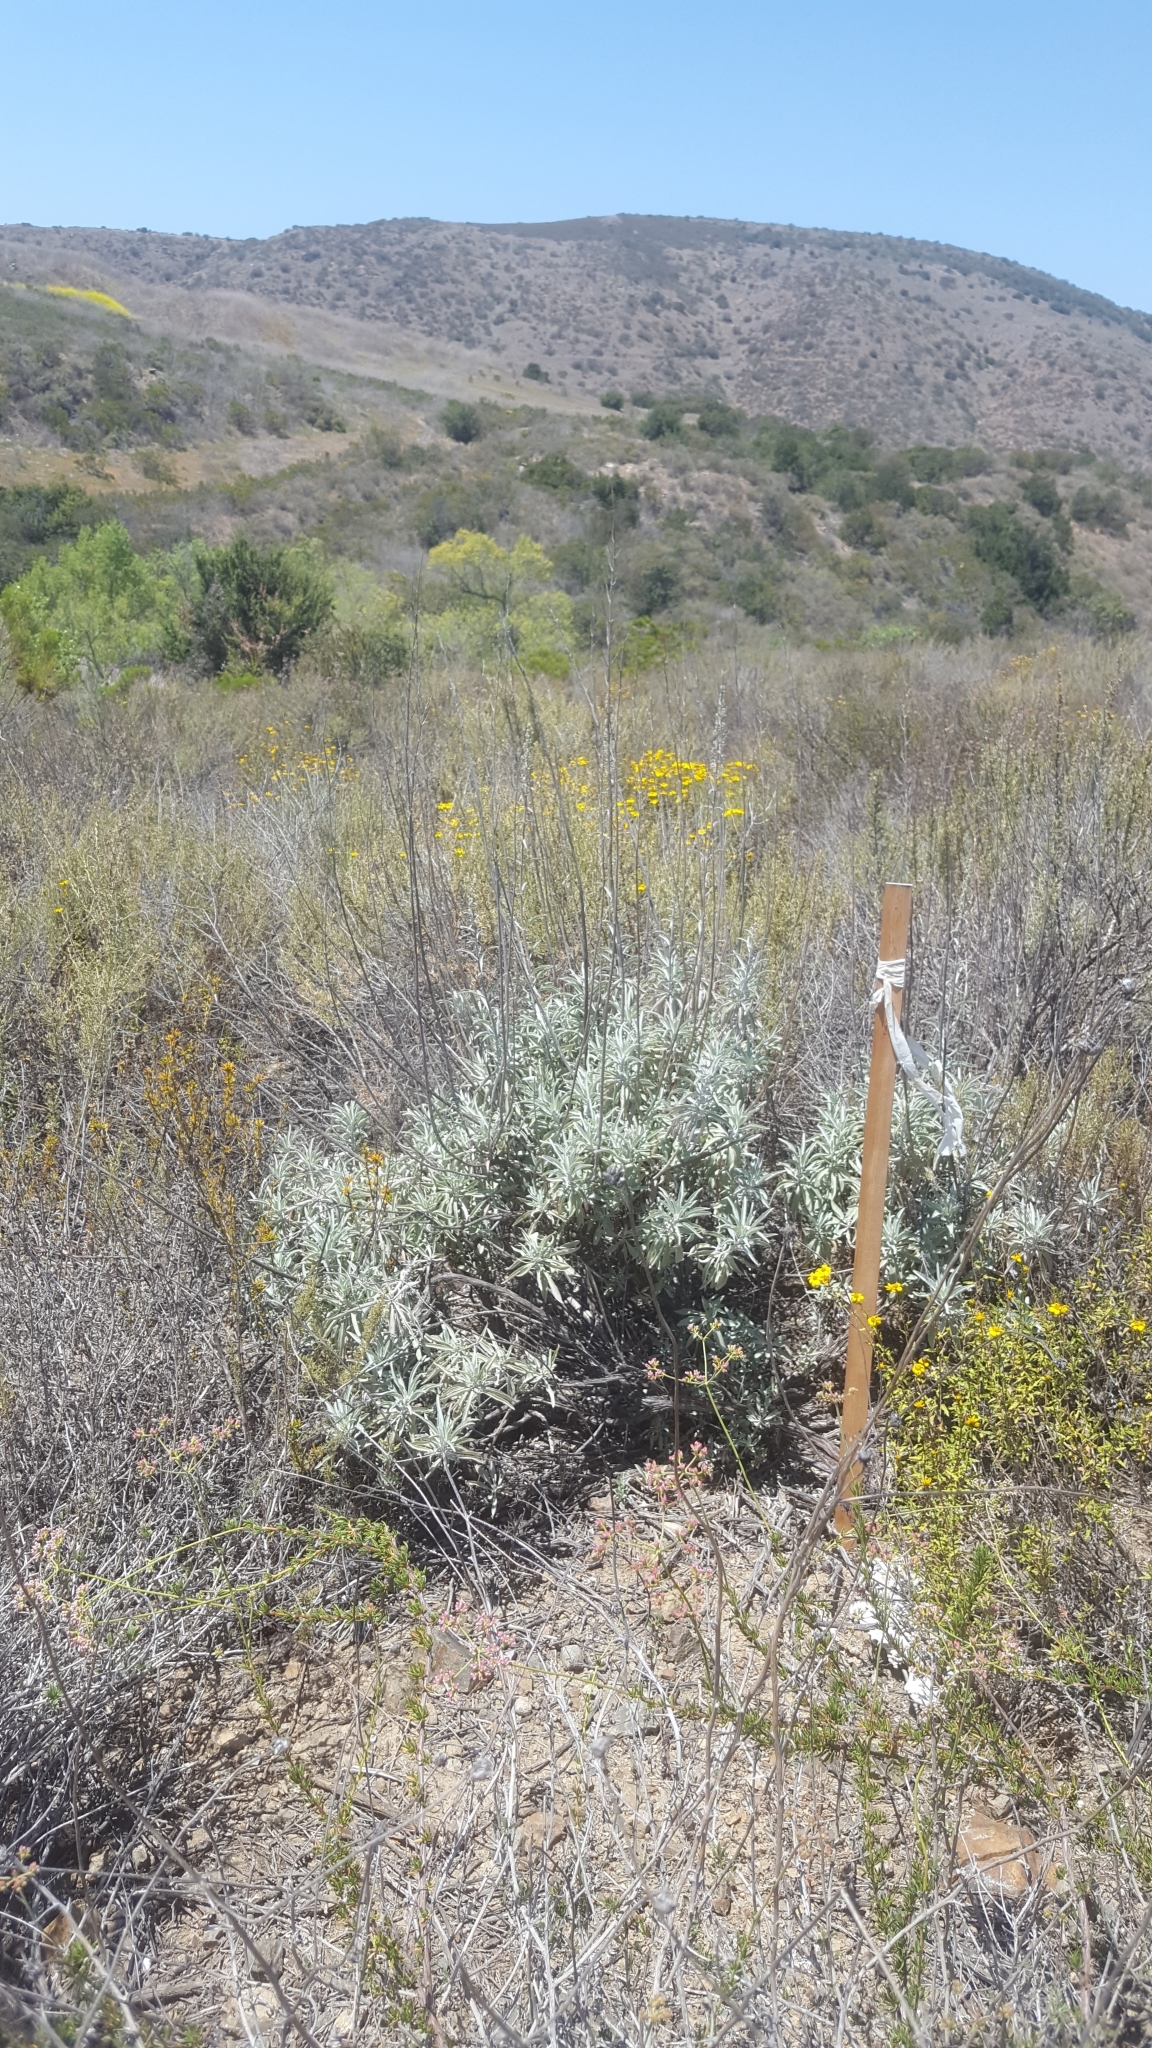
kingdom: Plantae
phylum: Tracheophyta
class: Magnoliopsida
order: Lamiales
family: Lamiaceae
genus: Salvia
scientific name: Salvia apiana
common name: White sage
